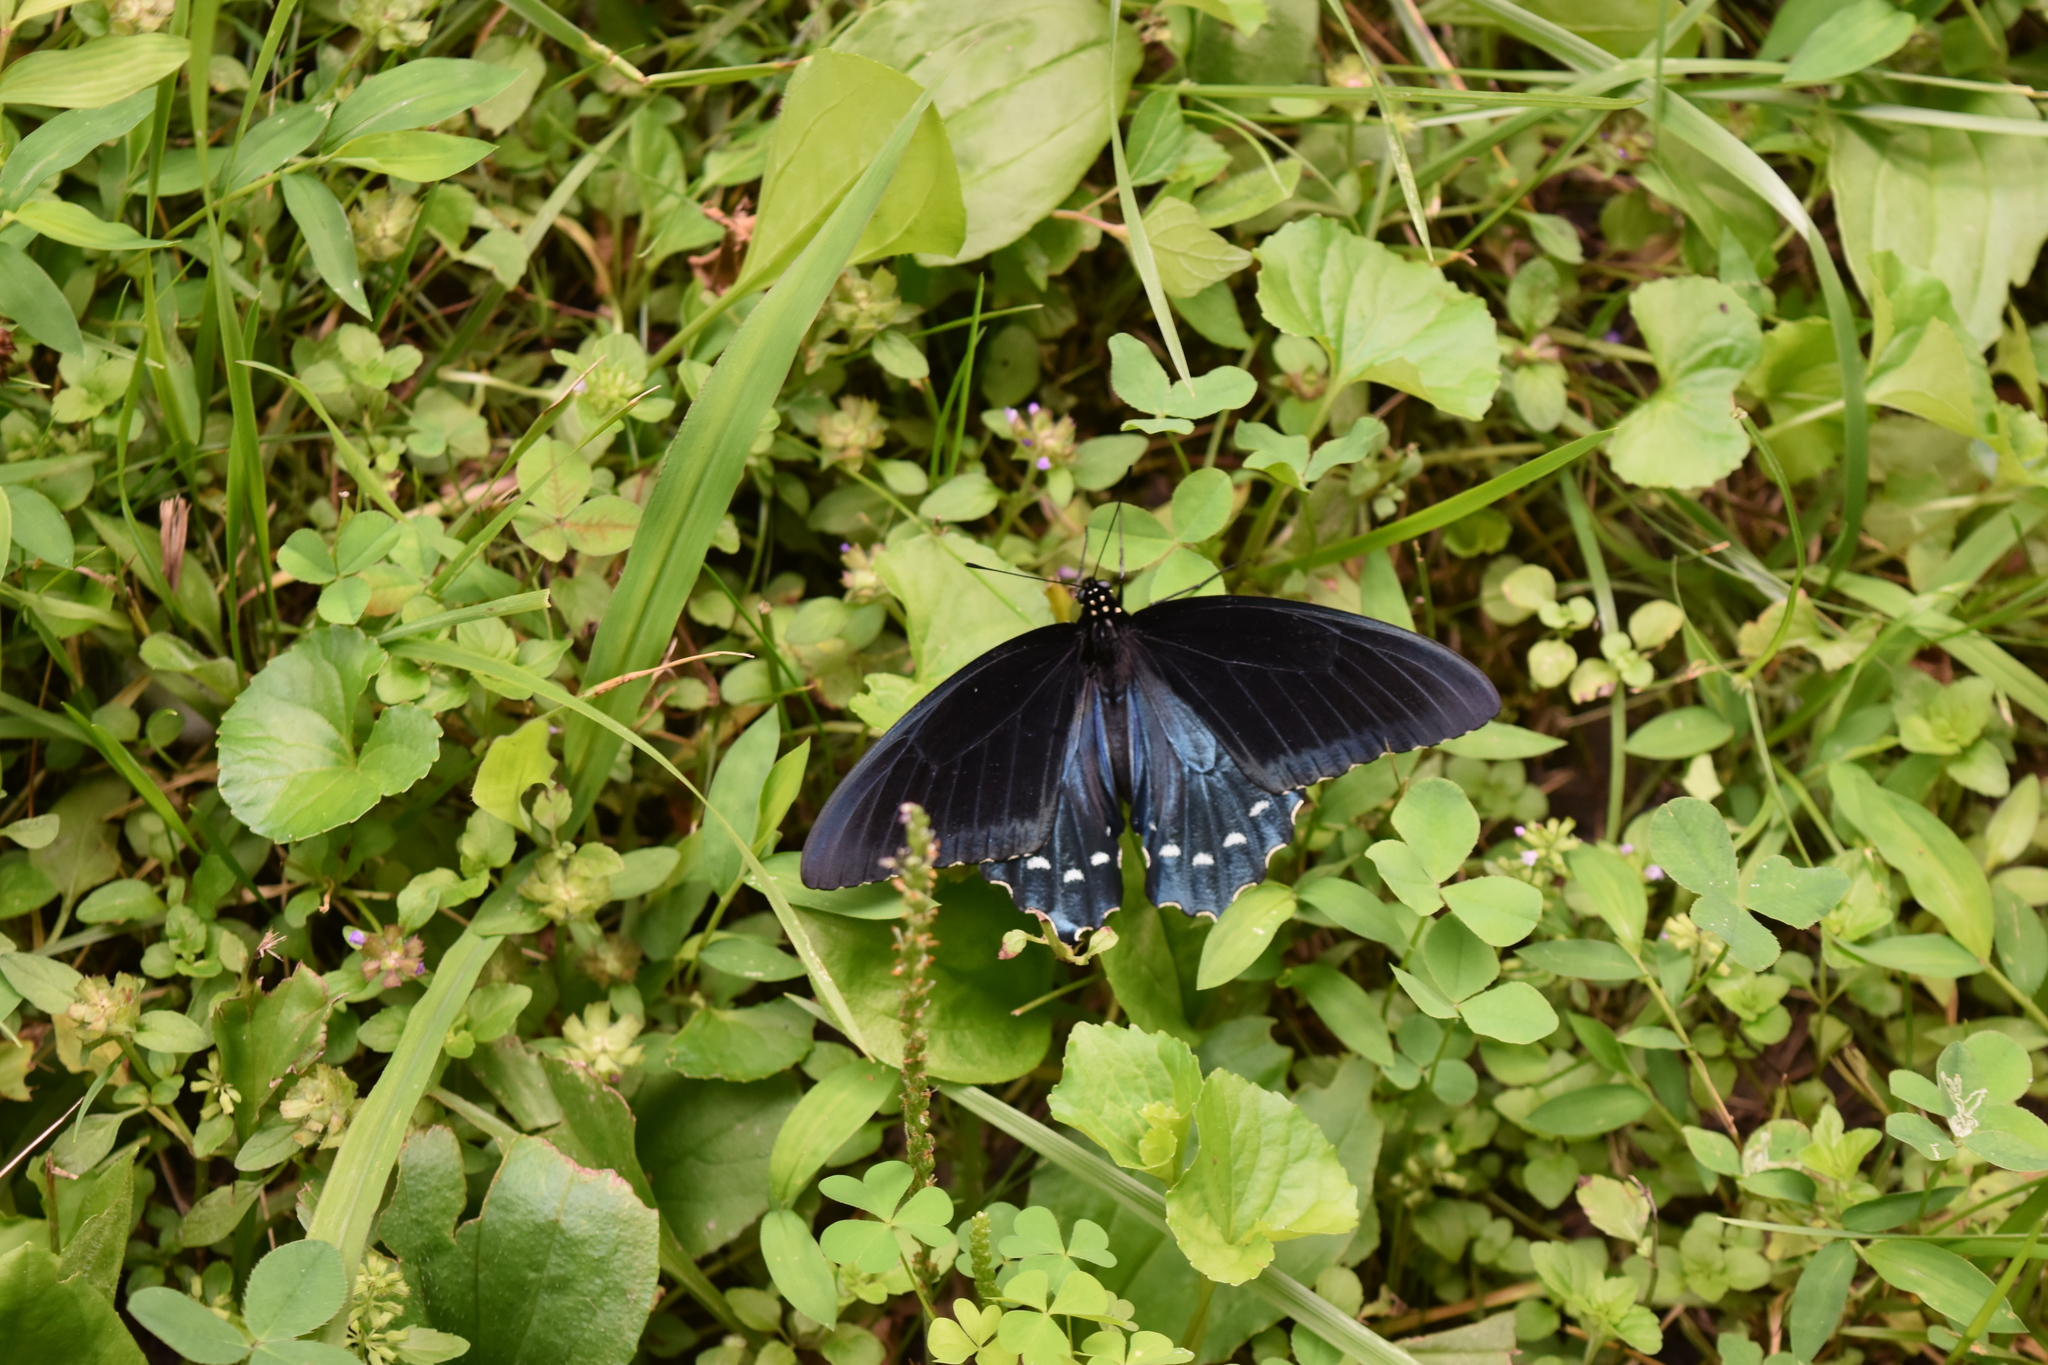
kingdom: Animalia
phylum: Arthropoda
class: Insecta
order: Lepidoptera
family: Papilionidae
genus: Battus
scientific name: Battus philenor
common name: Pipevine swallowtail
